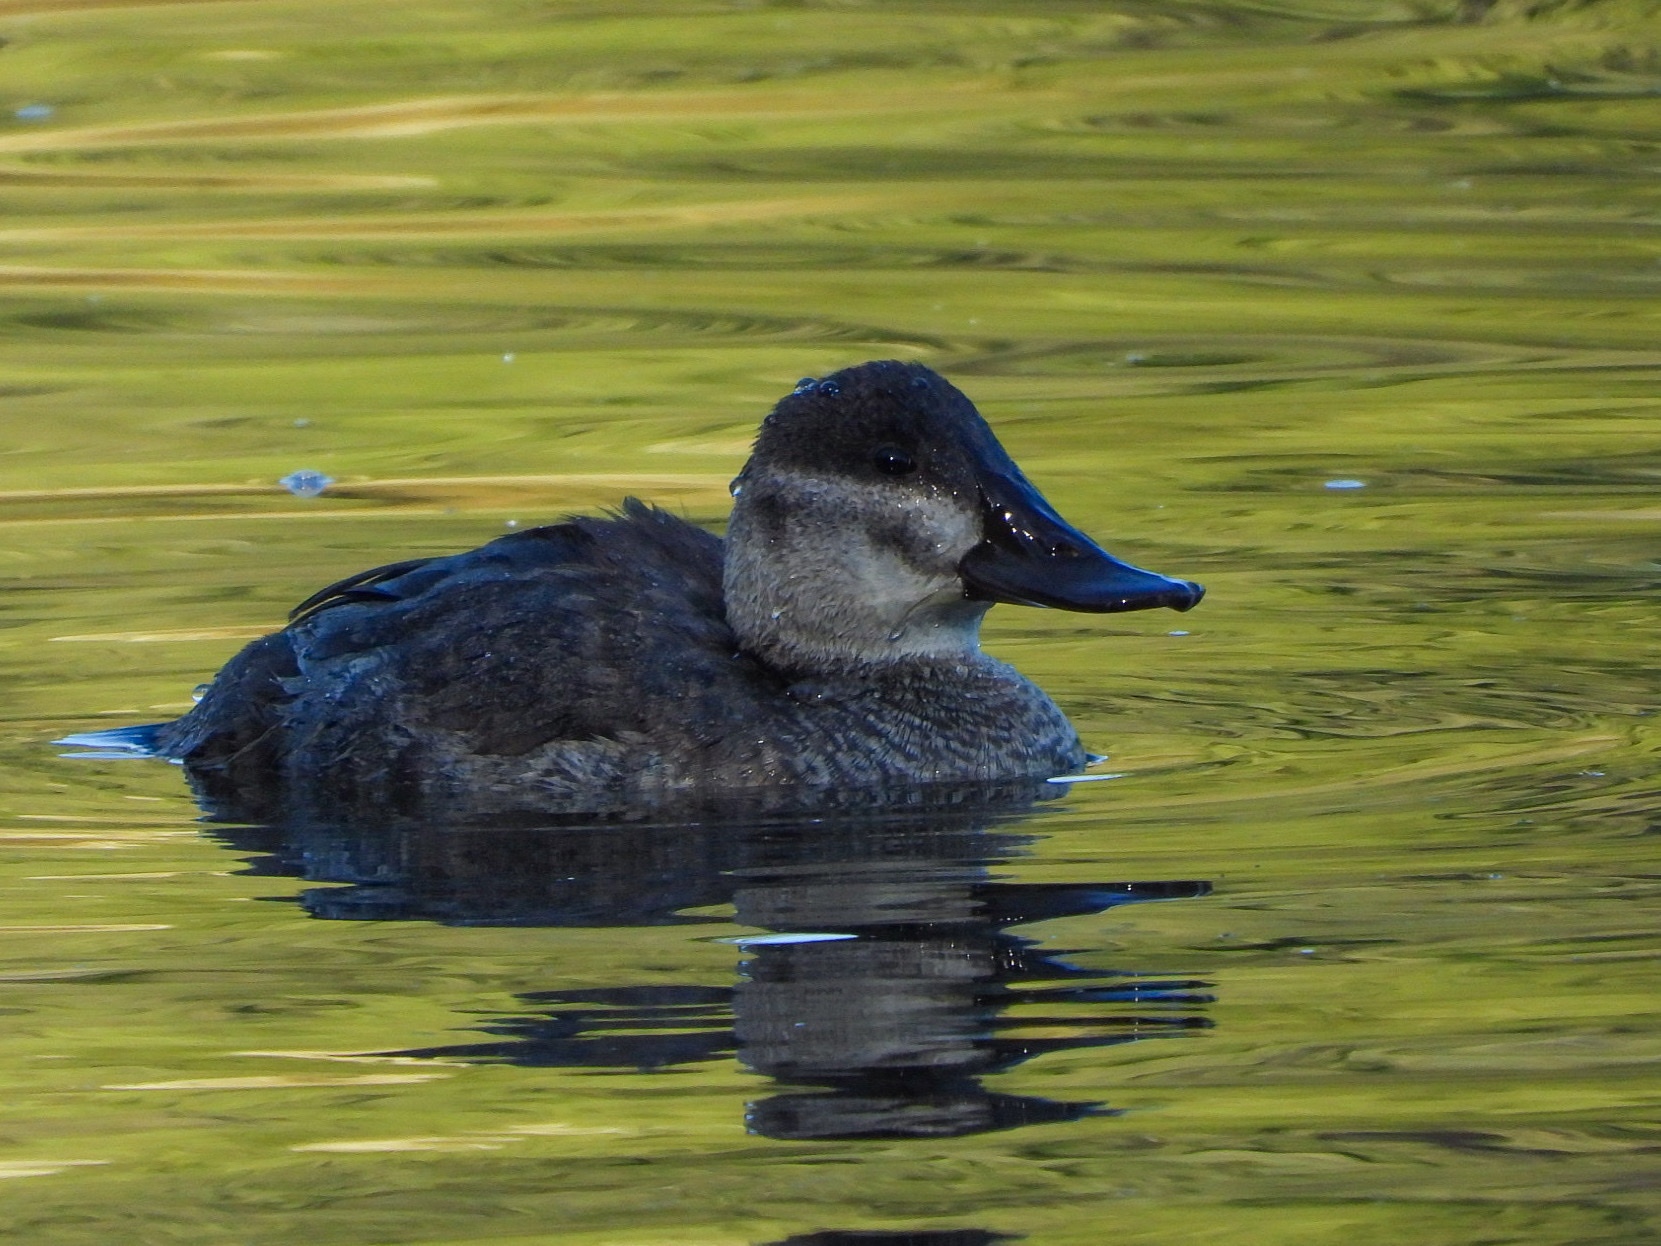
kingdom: Animalia
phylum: Chordata
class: Aves
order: Anseriformes
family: Anatidae
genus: Oxyura
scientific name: Oxyura jamaicensis
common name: Ruddy duck
